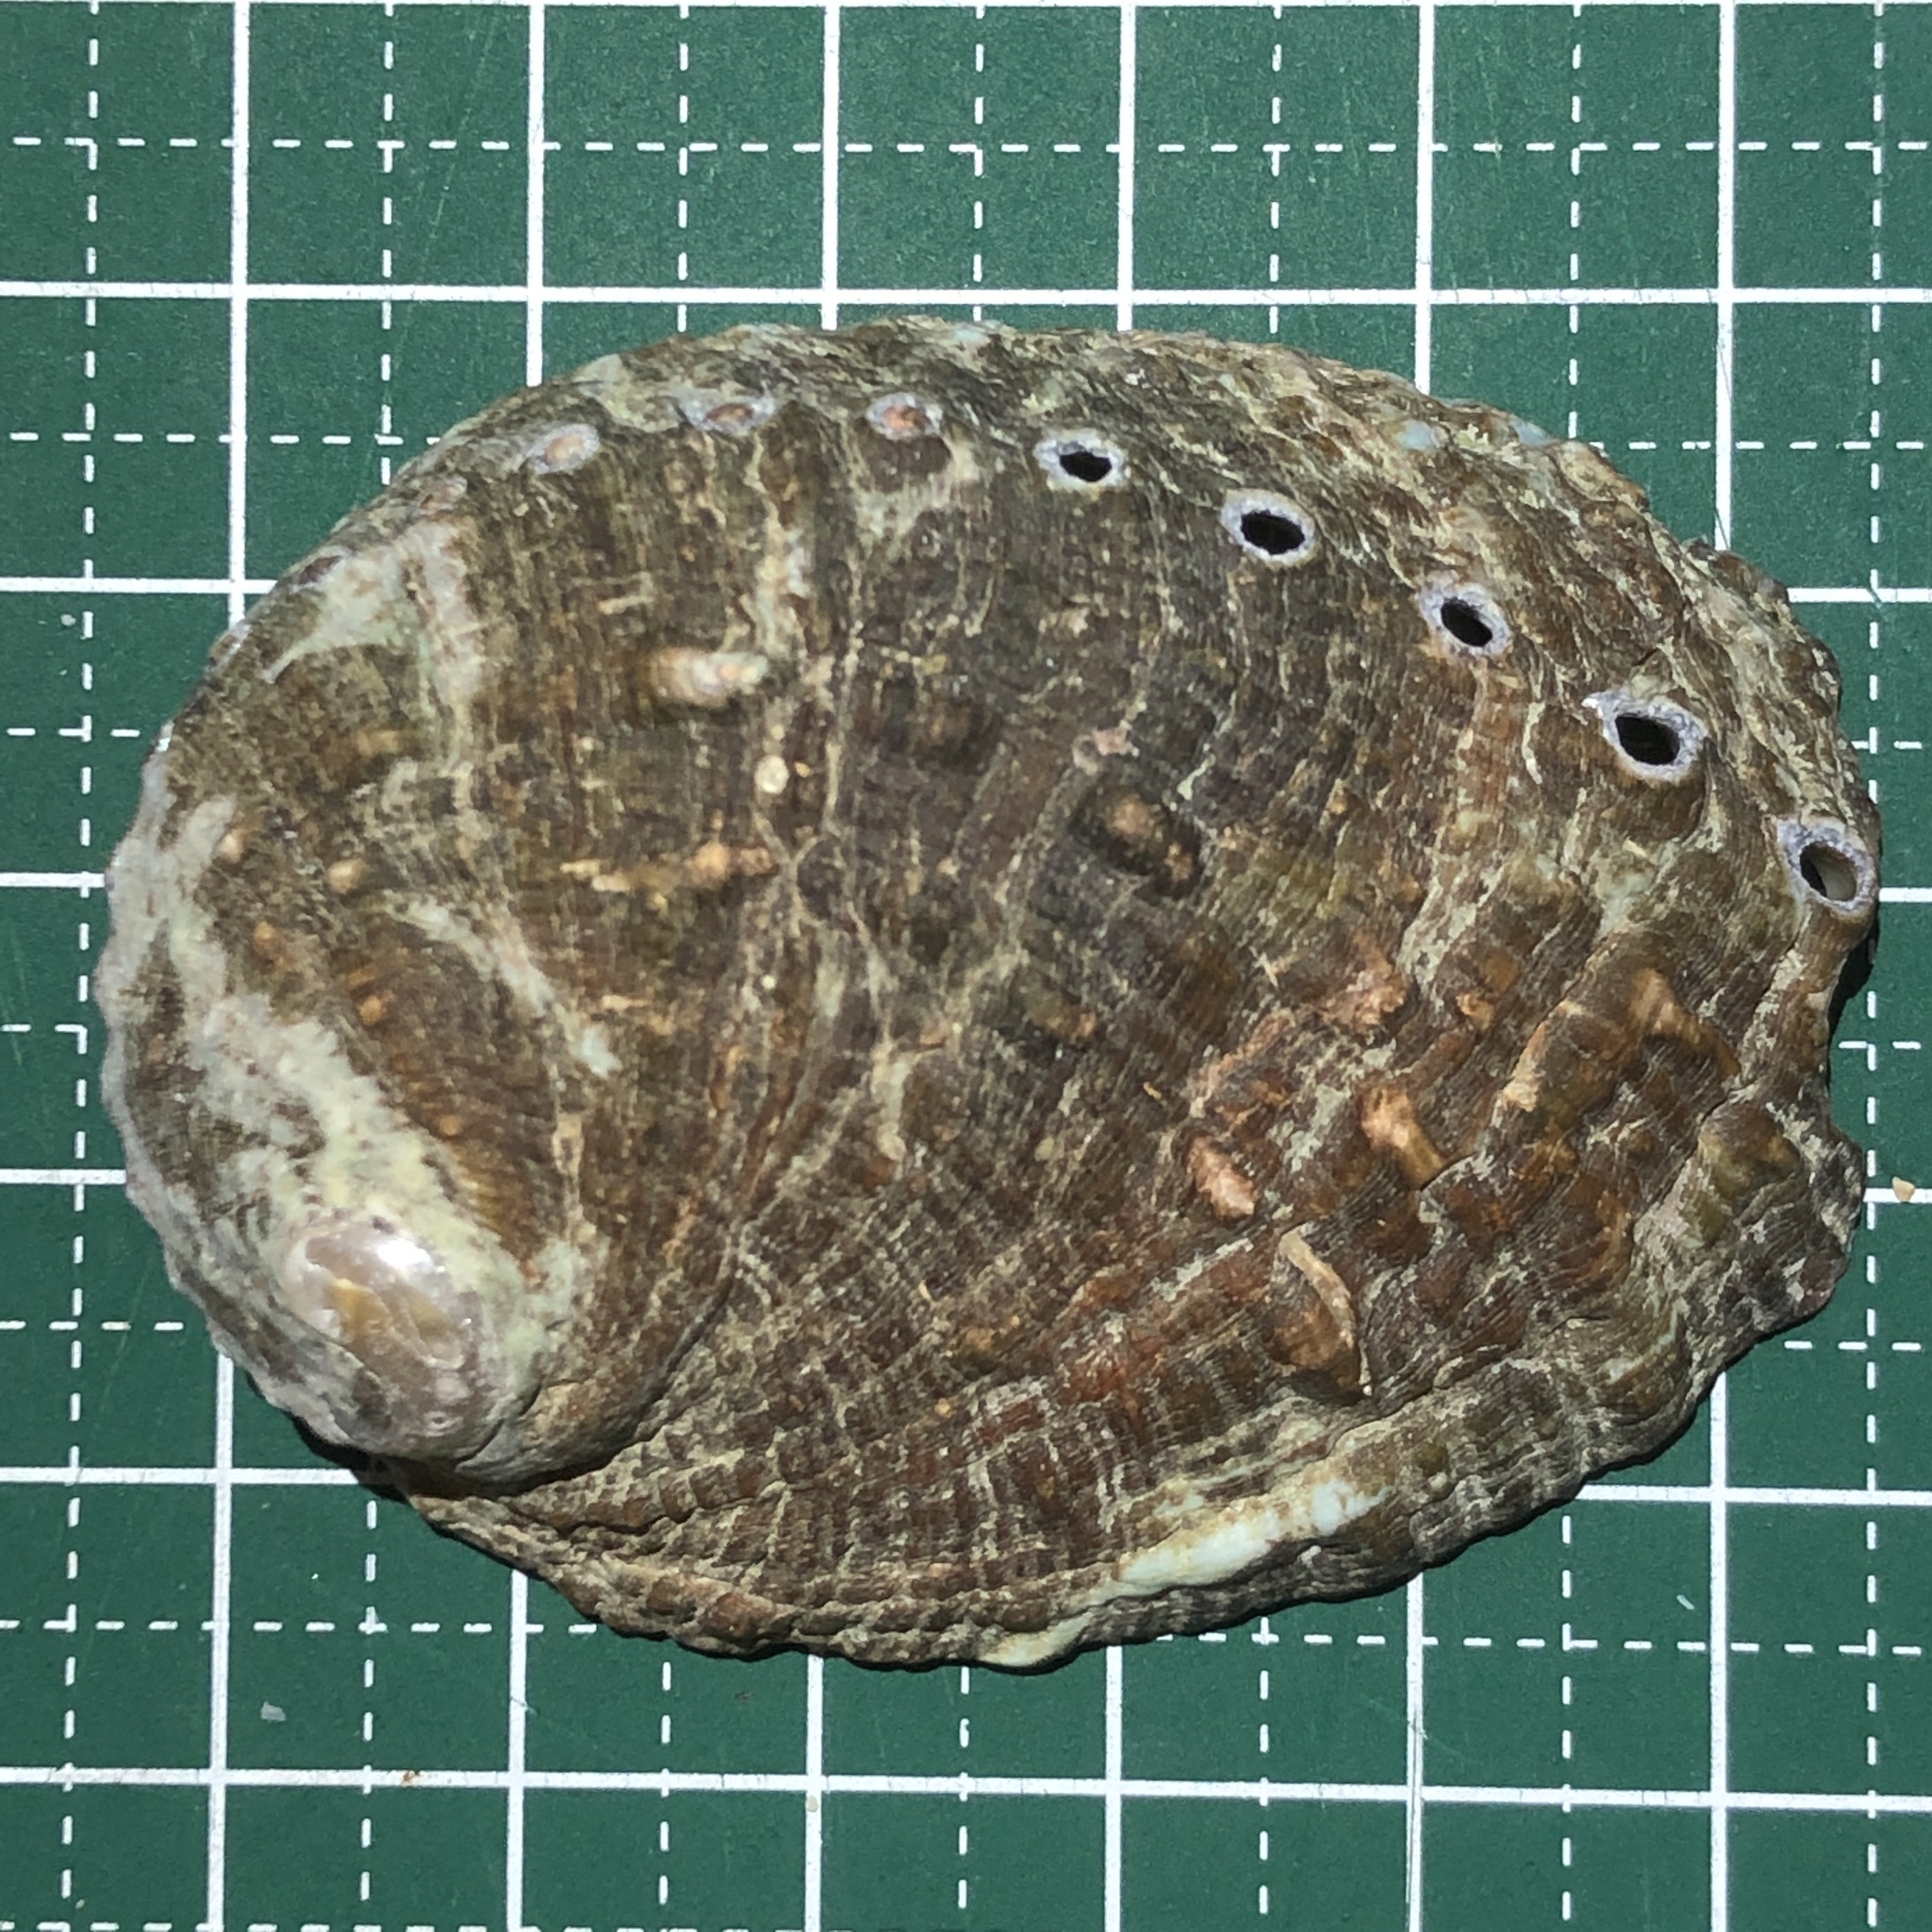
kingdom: Animalia
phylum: Mollusca
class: Gastropoda
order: Lepetellida
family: Haliotidae
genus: Haliotis
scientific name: Haliotis varia
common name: Variable abalone
